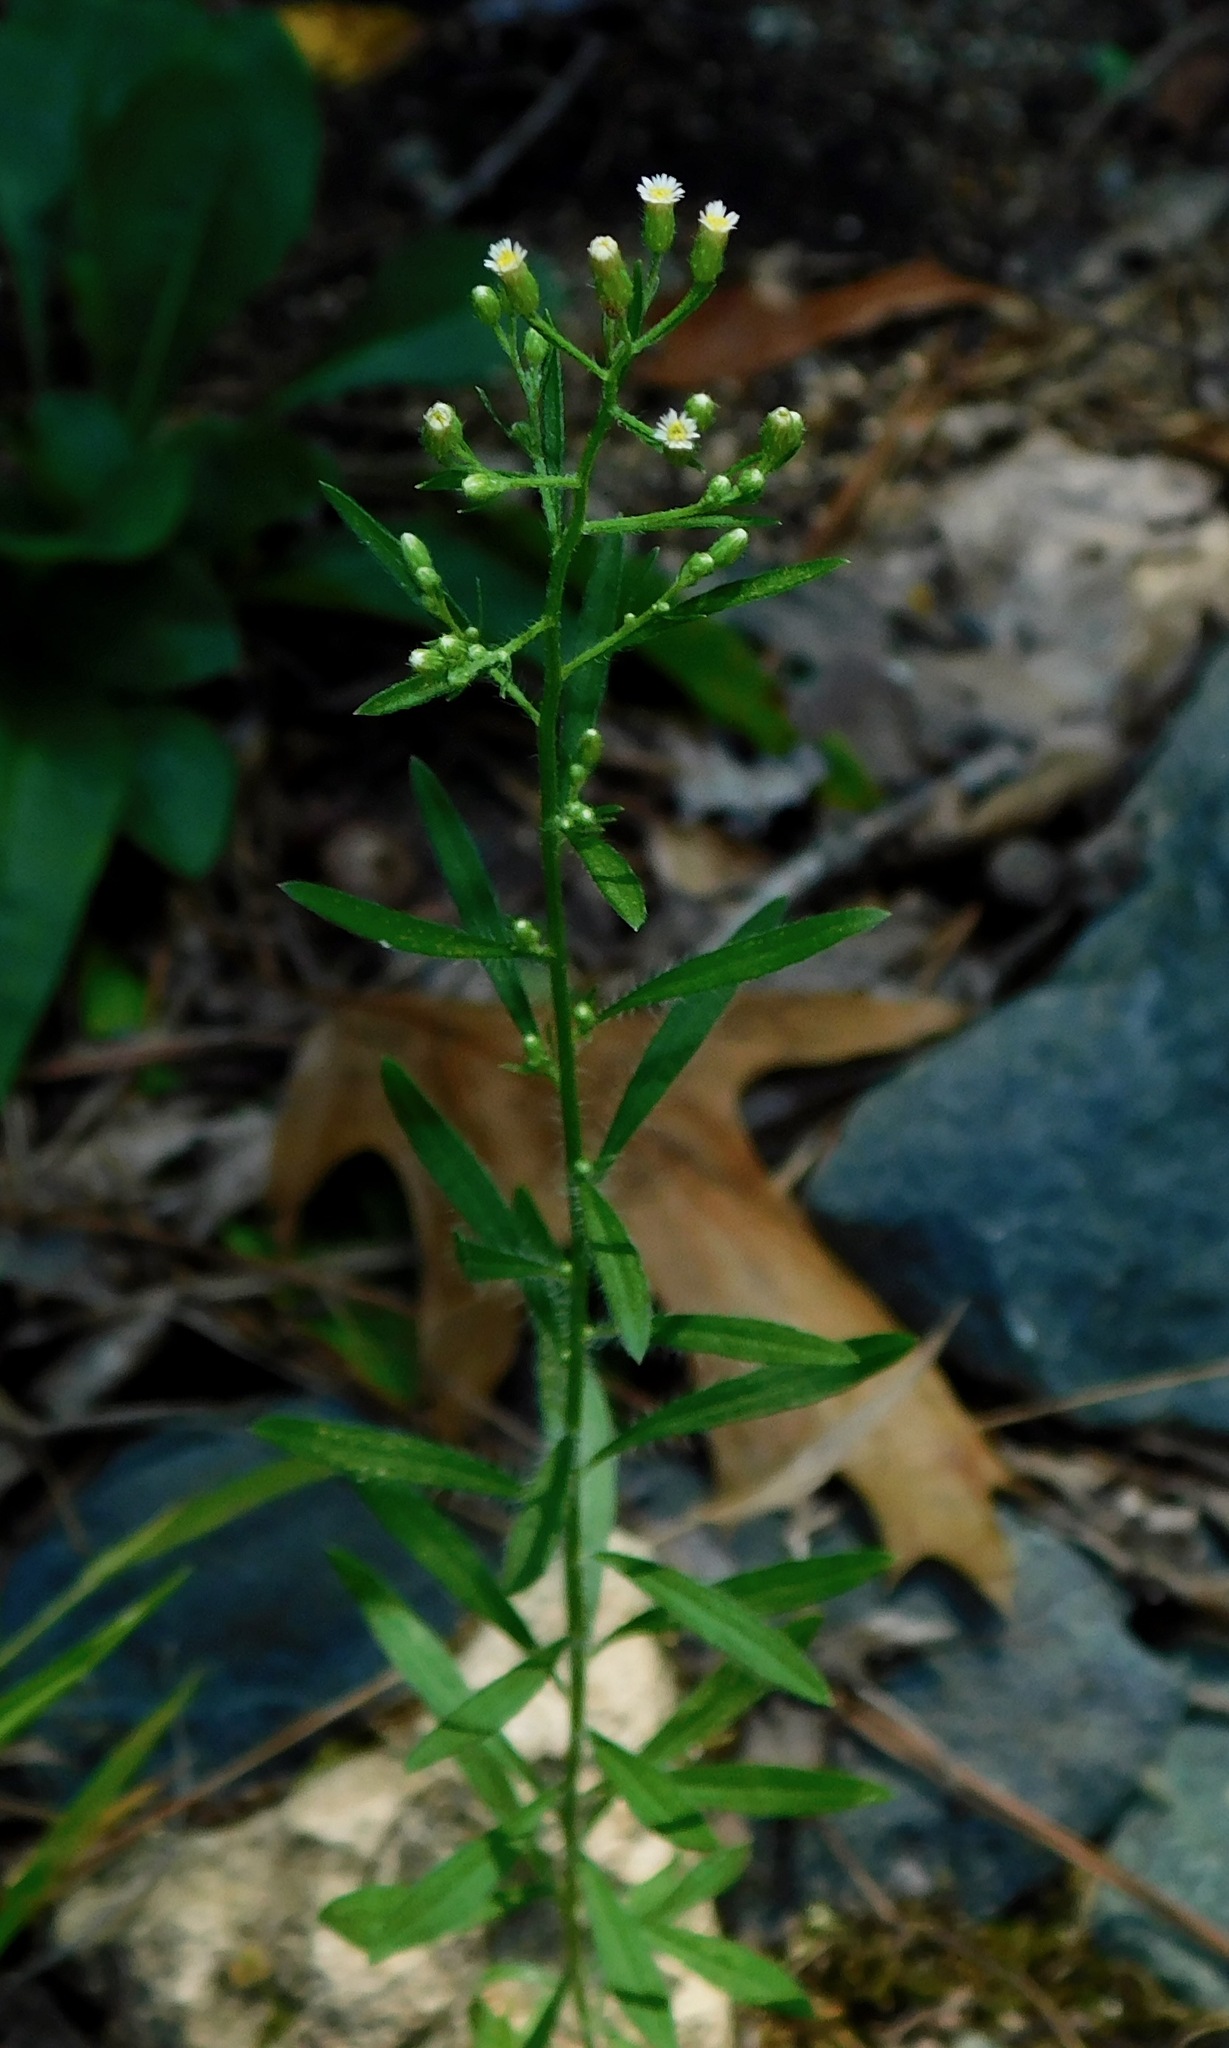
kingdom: Plantae
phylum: Tracheophyta
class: Magnoliopsida
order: Asterales
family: Asteraceae
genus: Erigeron
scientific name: Erigeron canadensis
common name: Canadian fleabane
